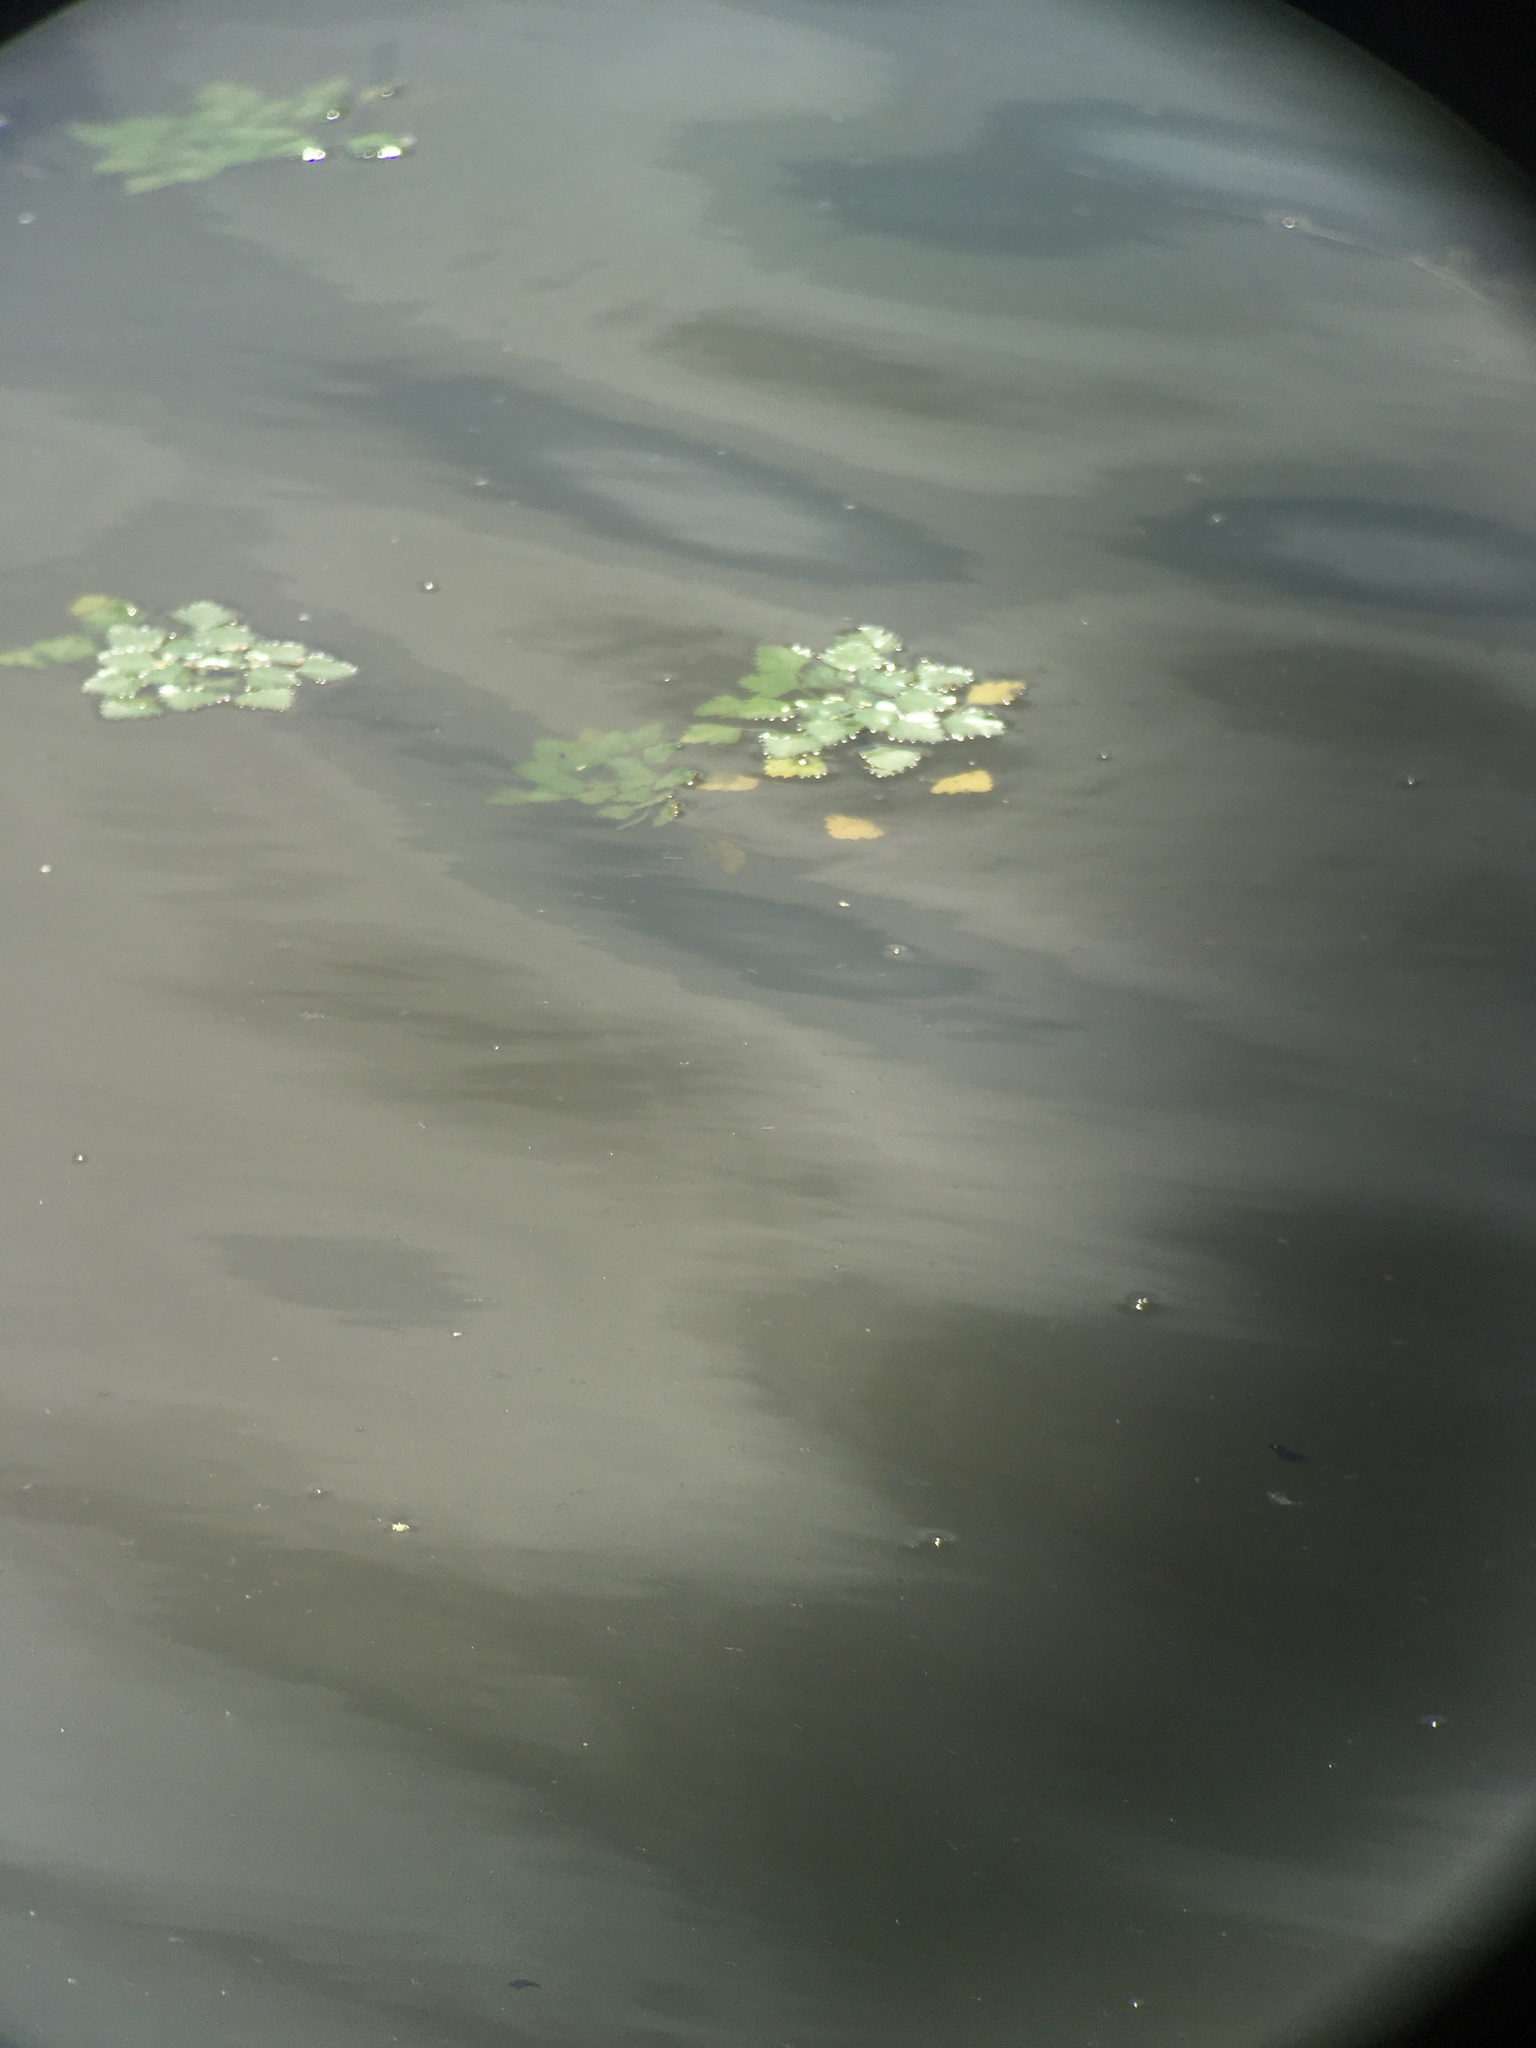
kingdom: Plantae
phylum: Tracheophyta
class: Magnoliopsida
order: Myrtales
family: Lythraceae
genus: Trapa
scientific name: Trapa natans
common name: Water chestnut
